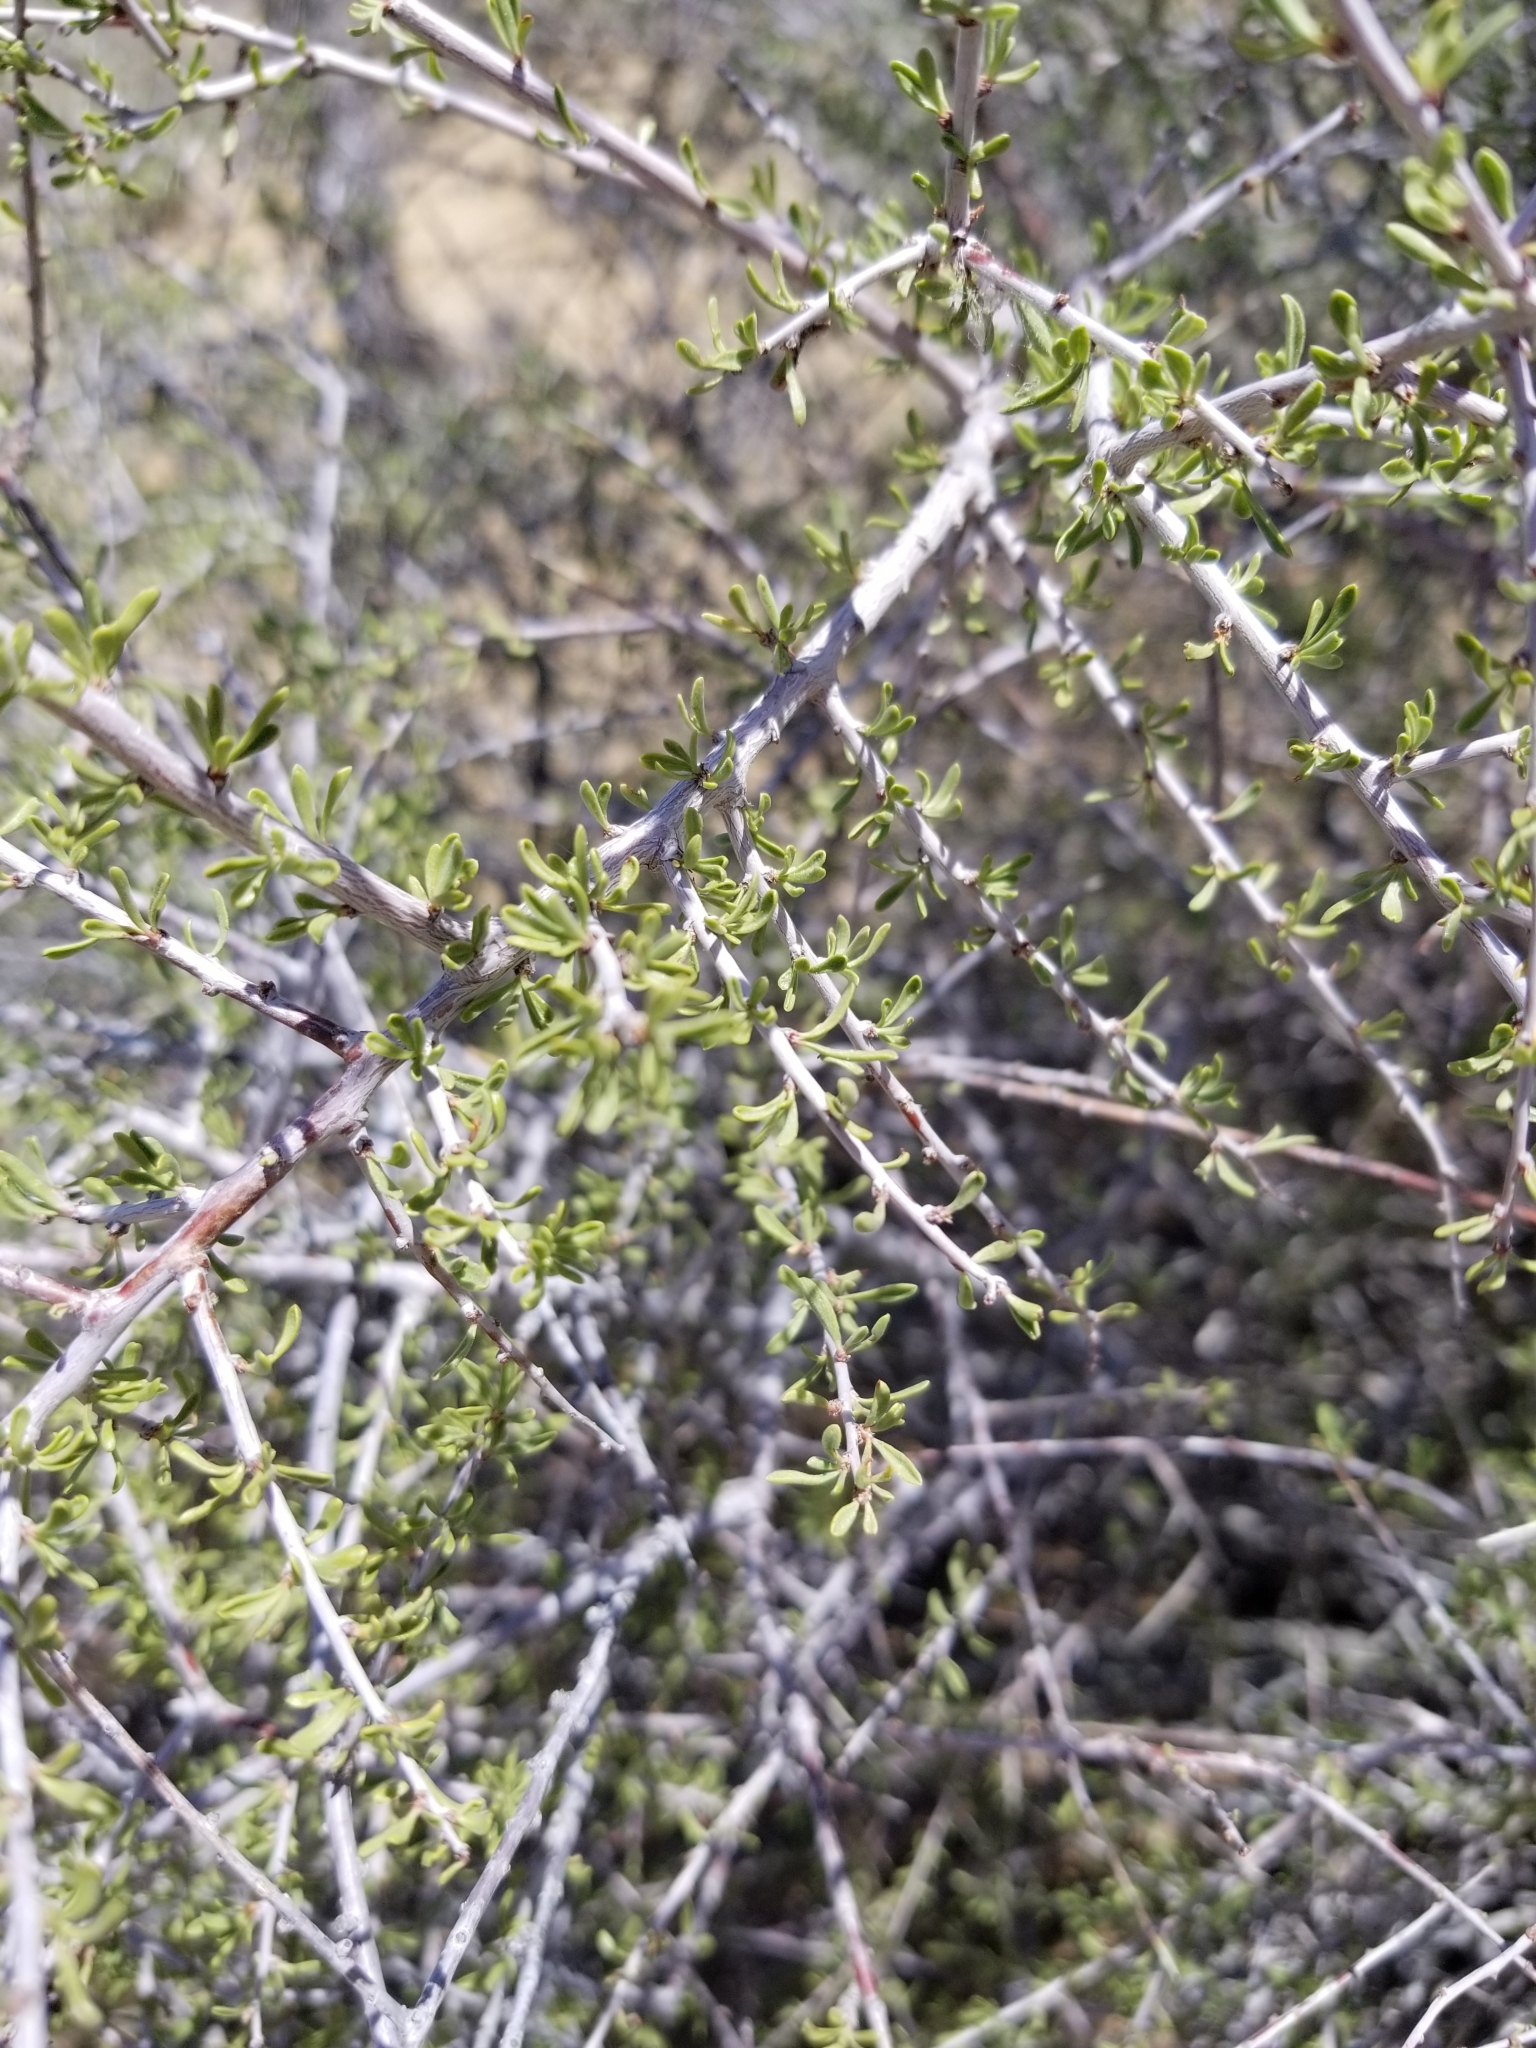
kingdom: Plantae
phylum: Tracheophyta
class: Magnoliopsida
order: Rosales
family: Rosaceae
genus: Prunus
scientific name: Prunus fasciculata
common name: Desert almond
